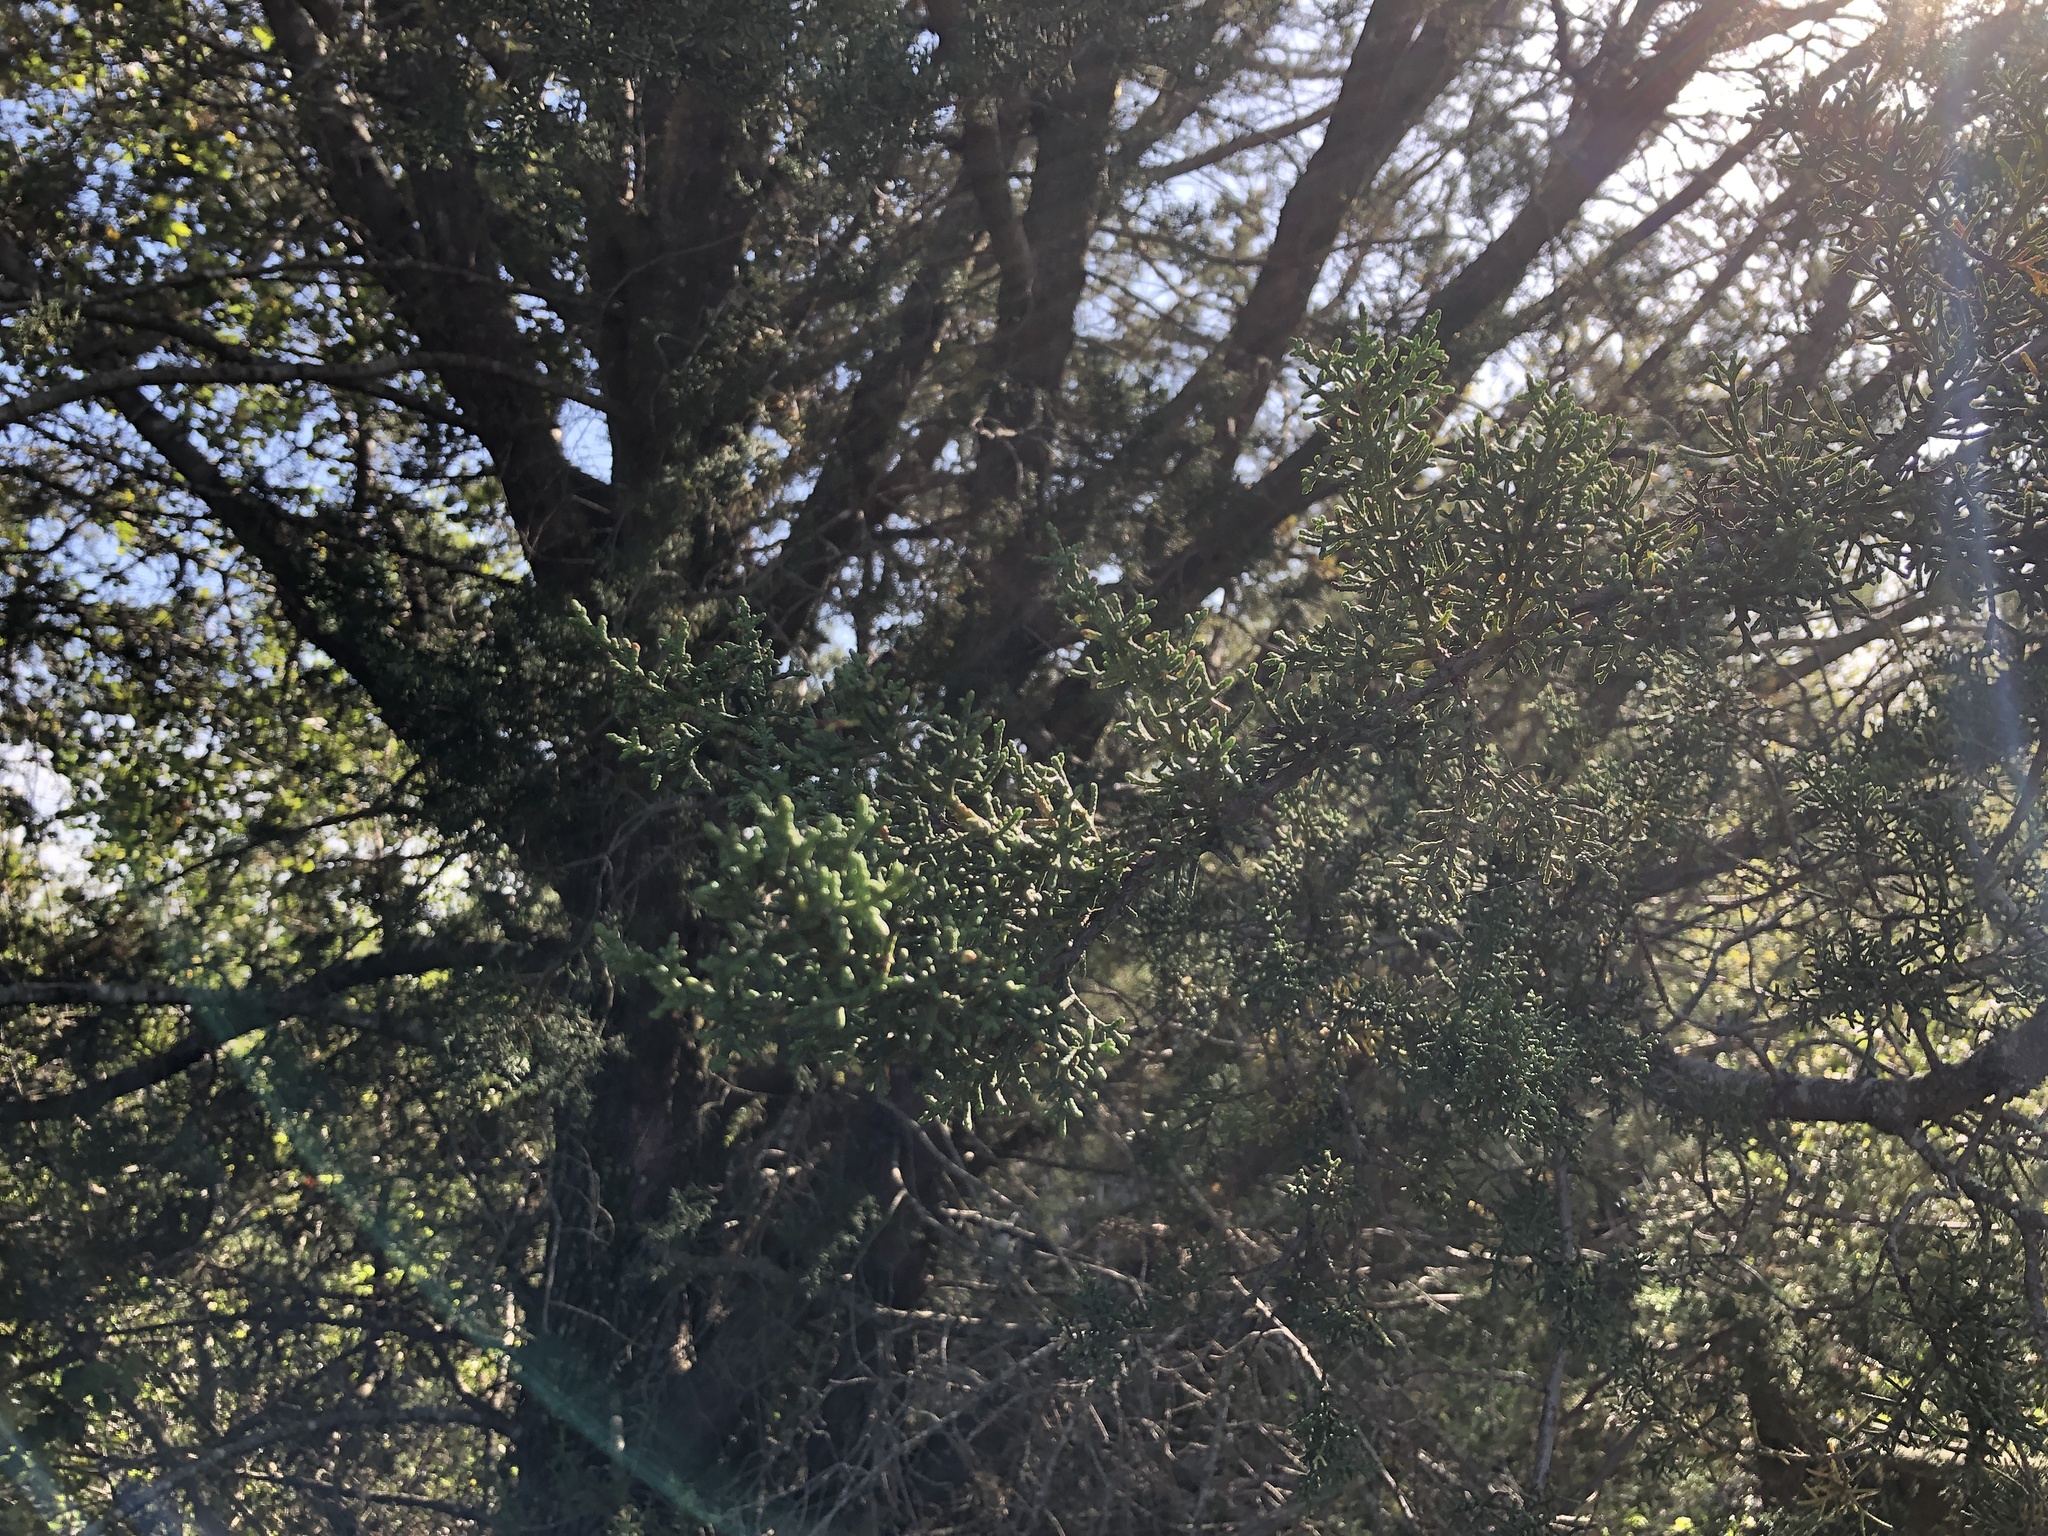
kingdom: Plantae
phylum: Tracheophyta
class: Pinopsida
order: Pinales
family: Cupressaceae
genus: Cupressus
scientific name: Cupressus goveniana
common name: Gowen cypress
